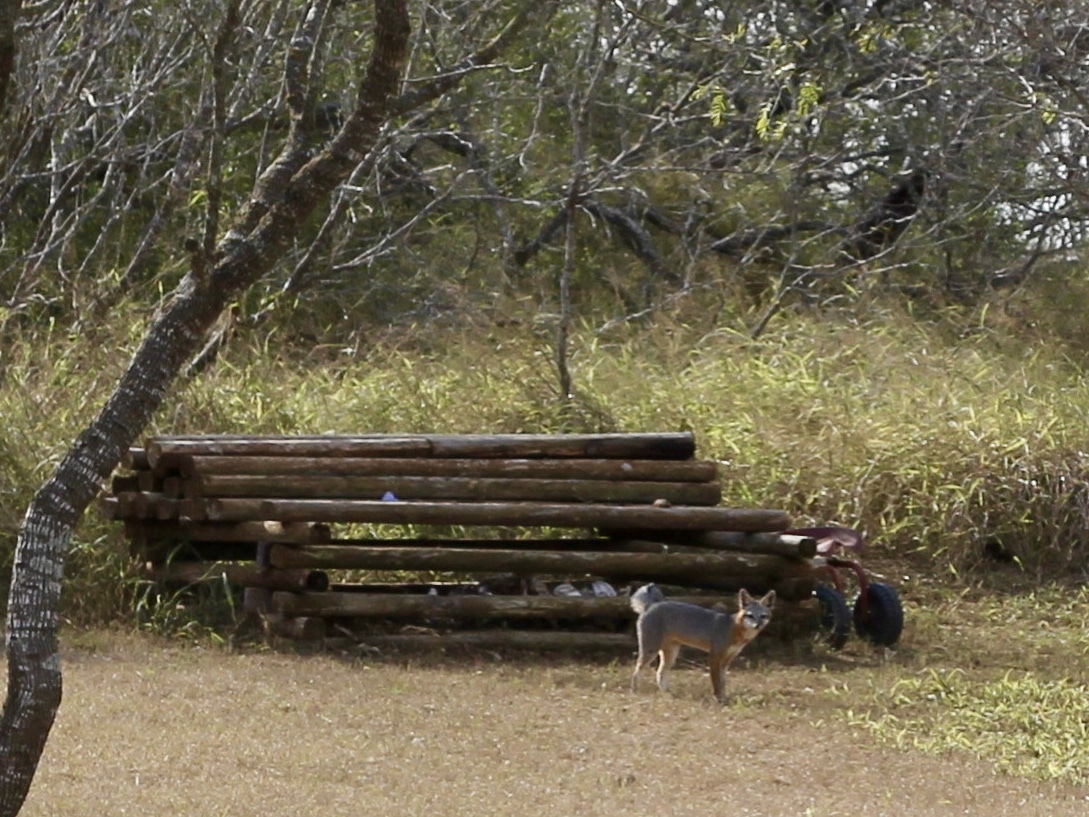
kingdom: Animalia
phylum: Chordata
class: Mammalia
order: Carnivora
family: Canidae
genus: Urocyon
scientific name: Urocyon cinereoargenteus
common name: Gray fox
